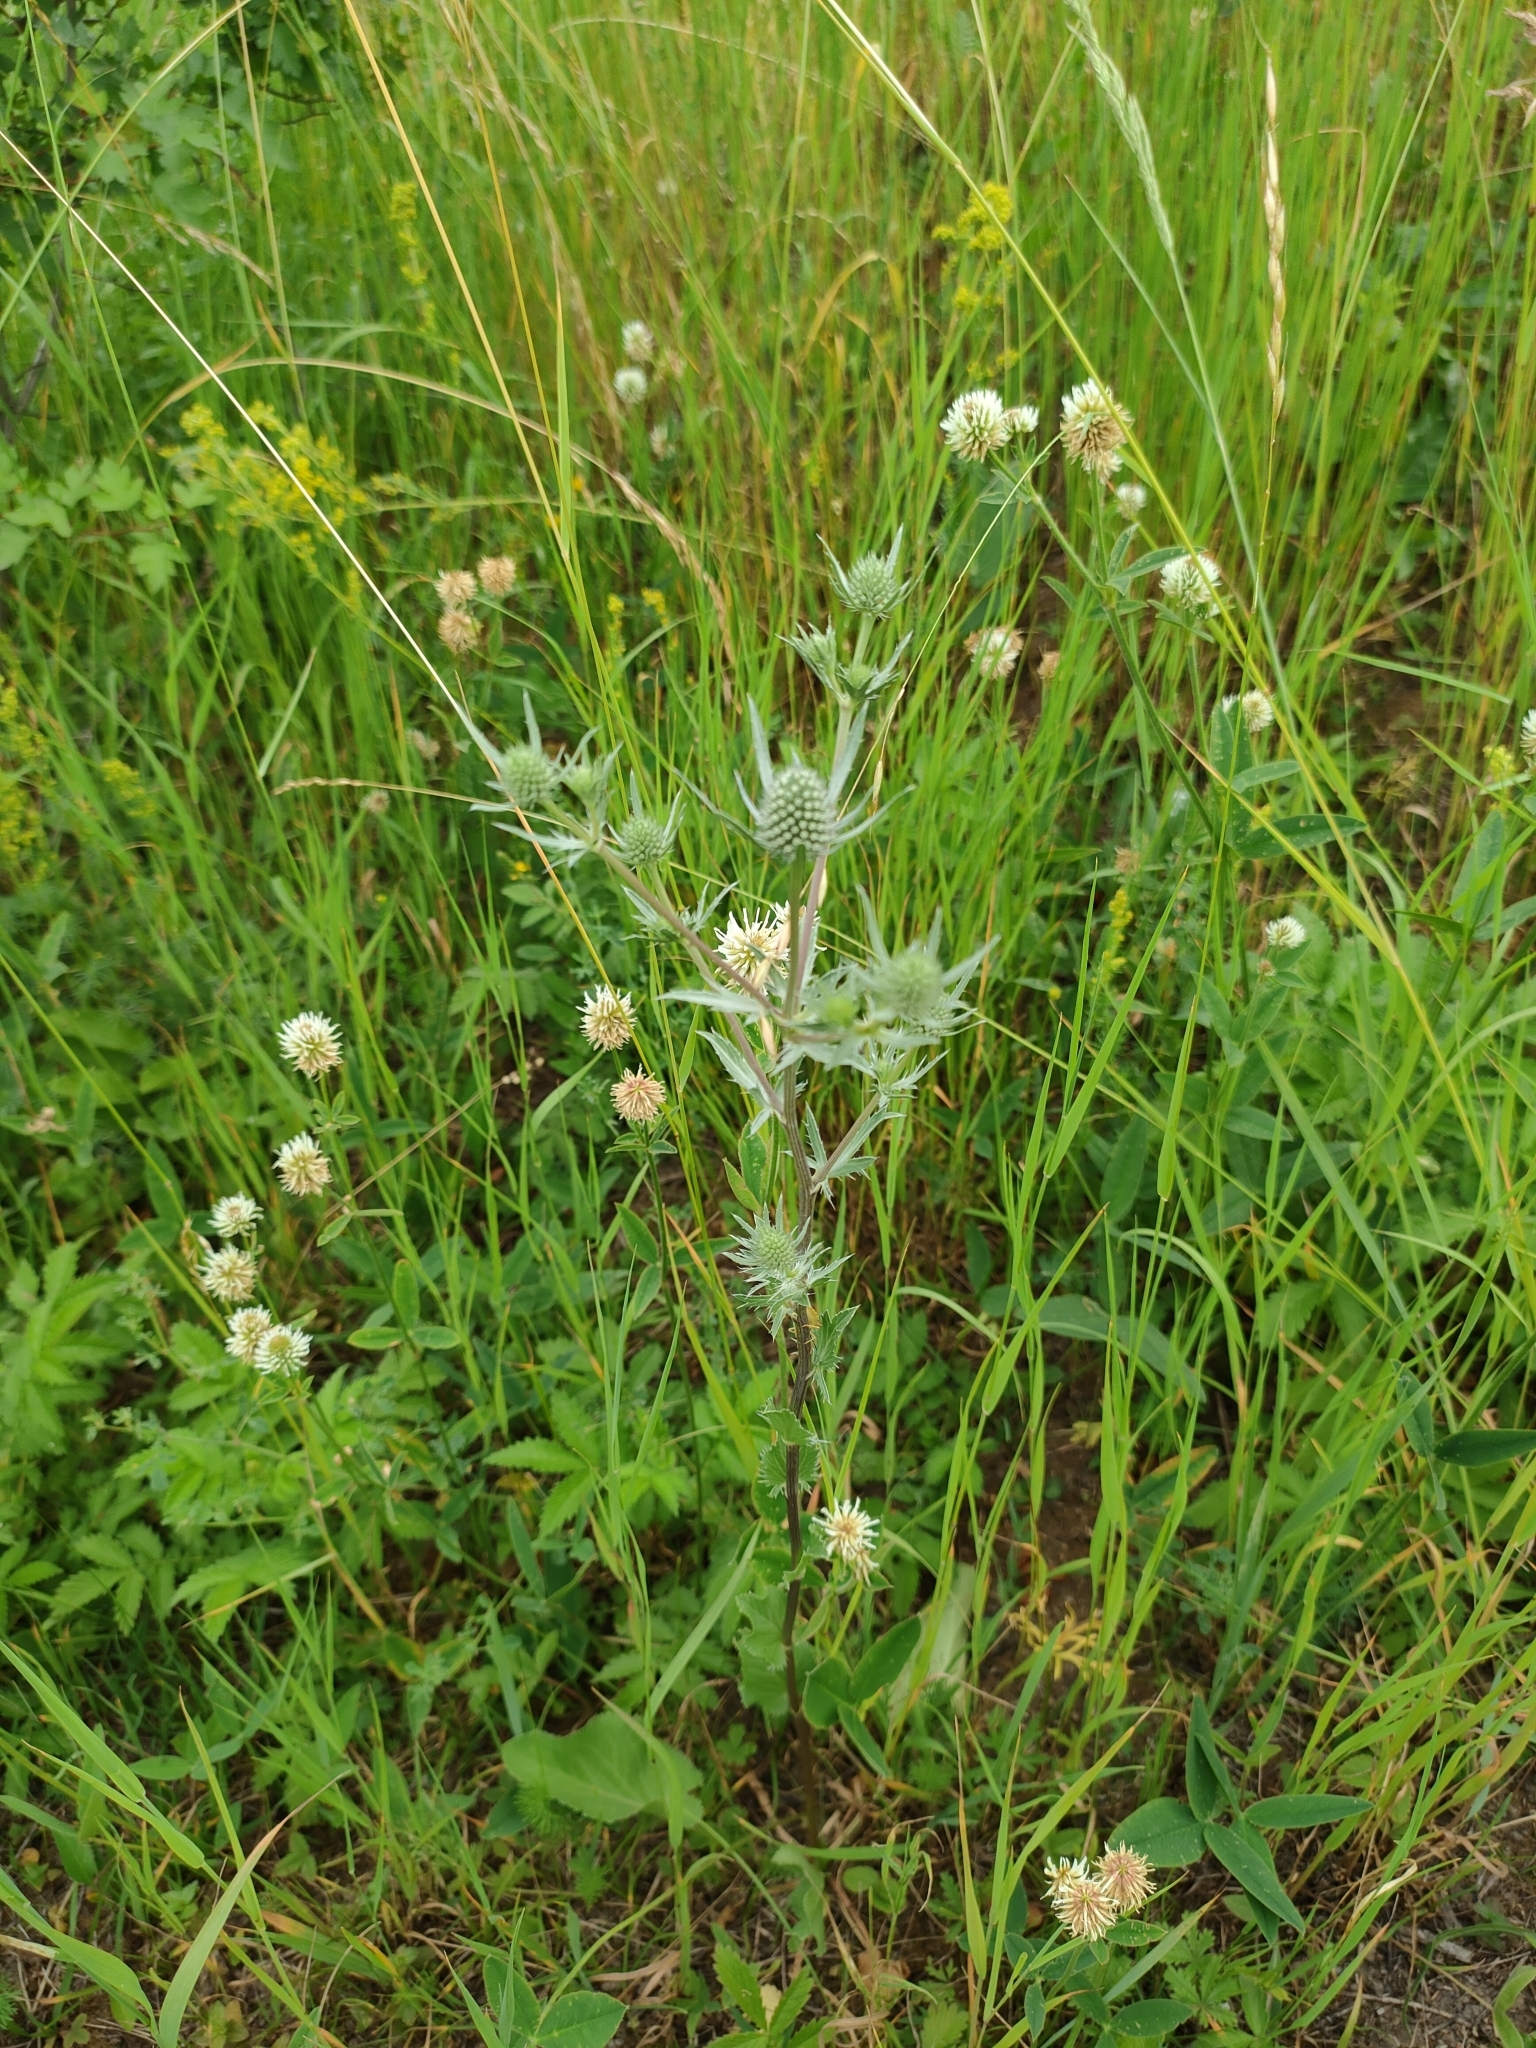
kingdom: Plantae
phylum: Tracheophyta
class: Magnoliopsida
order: Apiales
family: Apiaceae
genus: Eryngium
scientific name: Eryngium planum
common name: Blue eryngo
